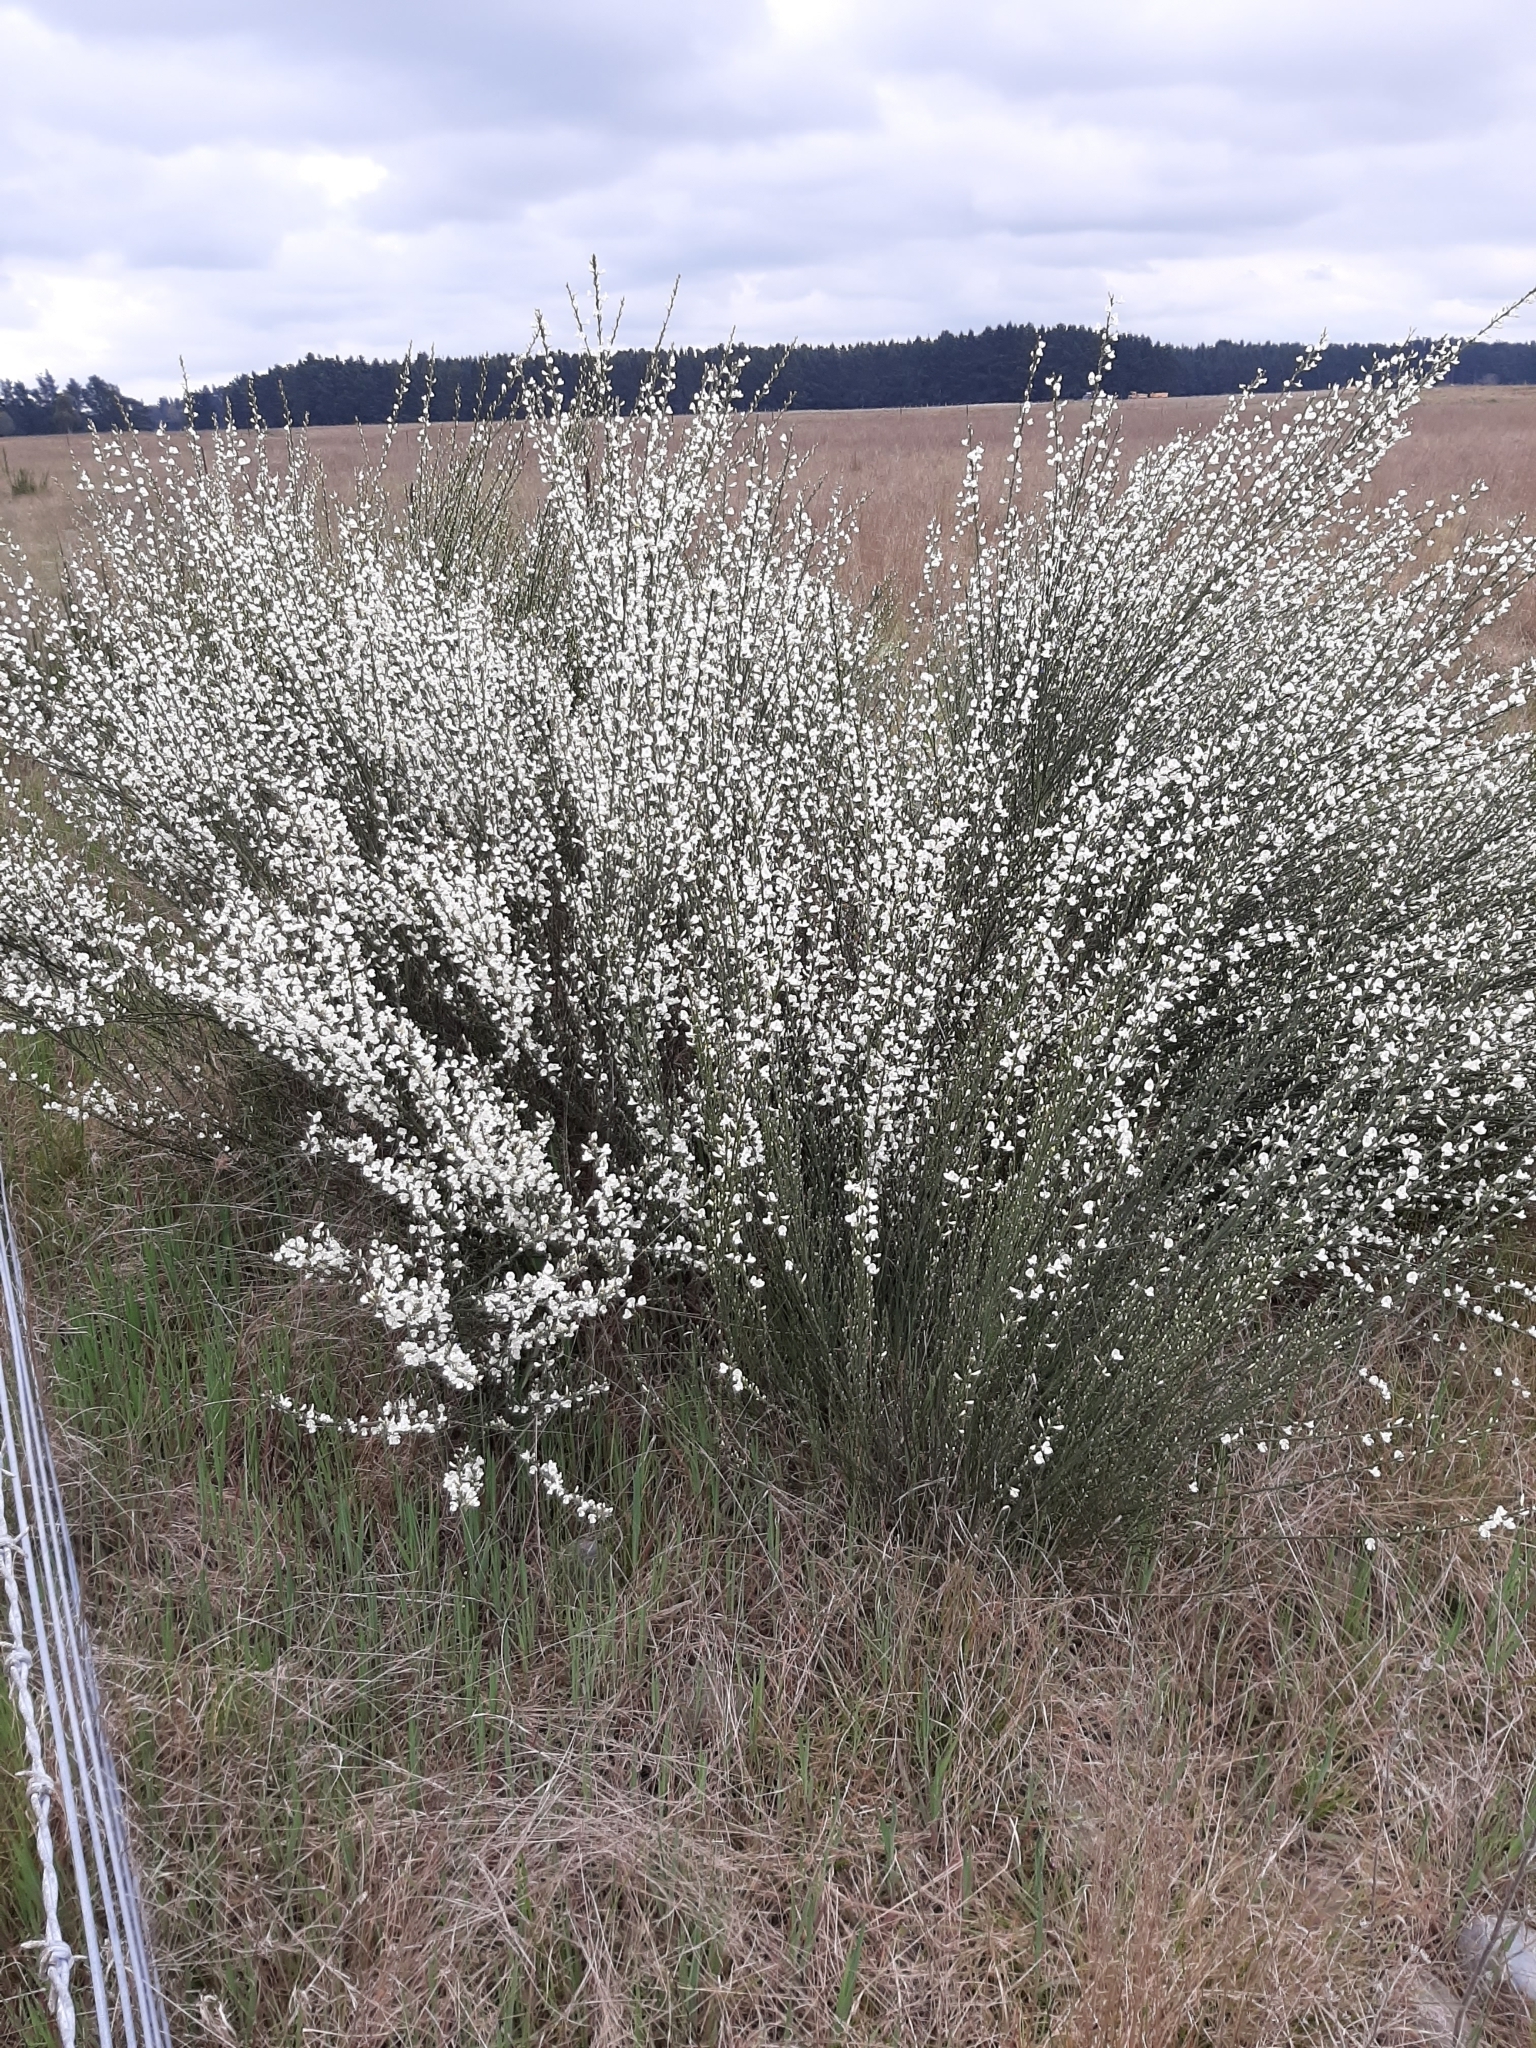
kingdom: Plantae
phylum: Tracheophyta
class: Magnoliopsida
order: Fabales
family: Fabaceae
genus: Cytisus
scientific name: Cytisus multiflorus
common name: White broom
